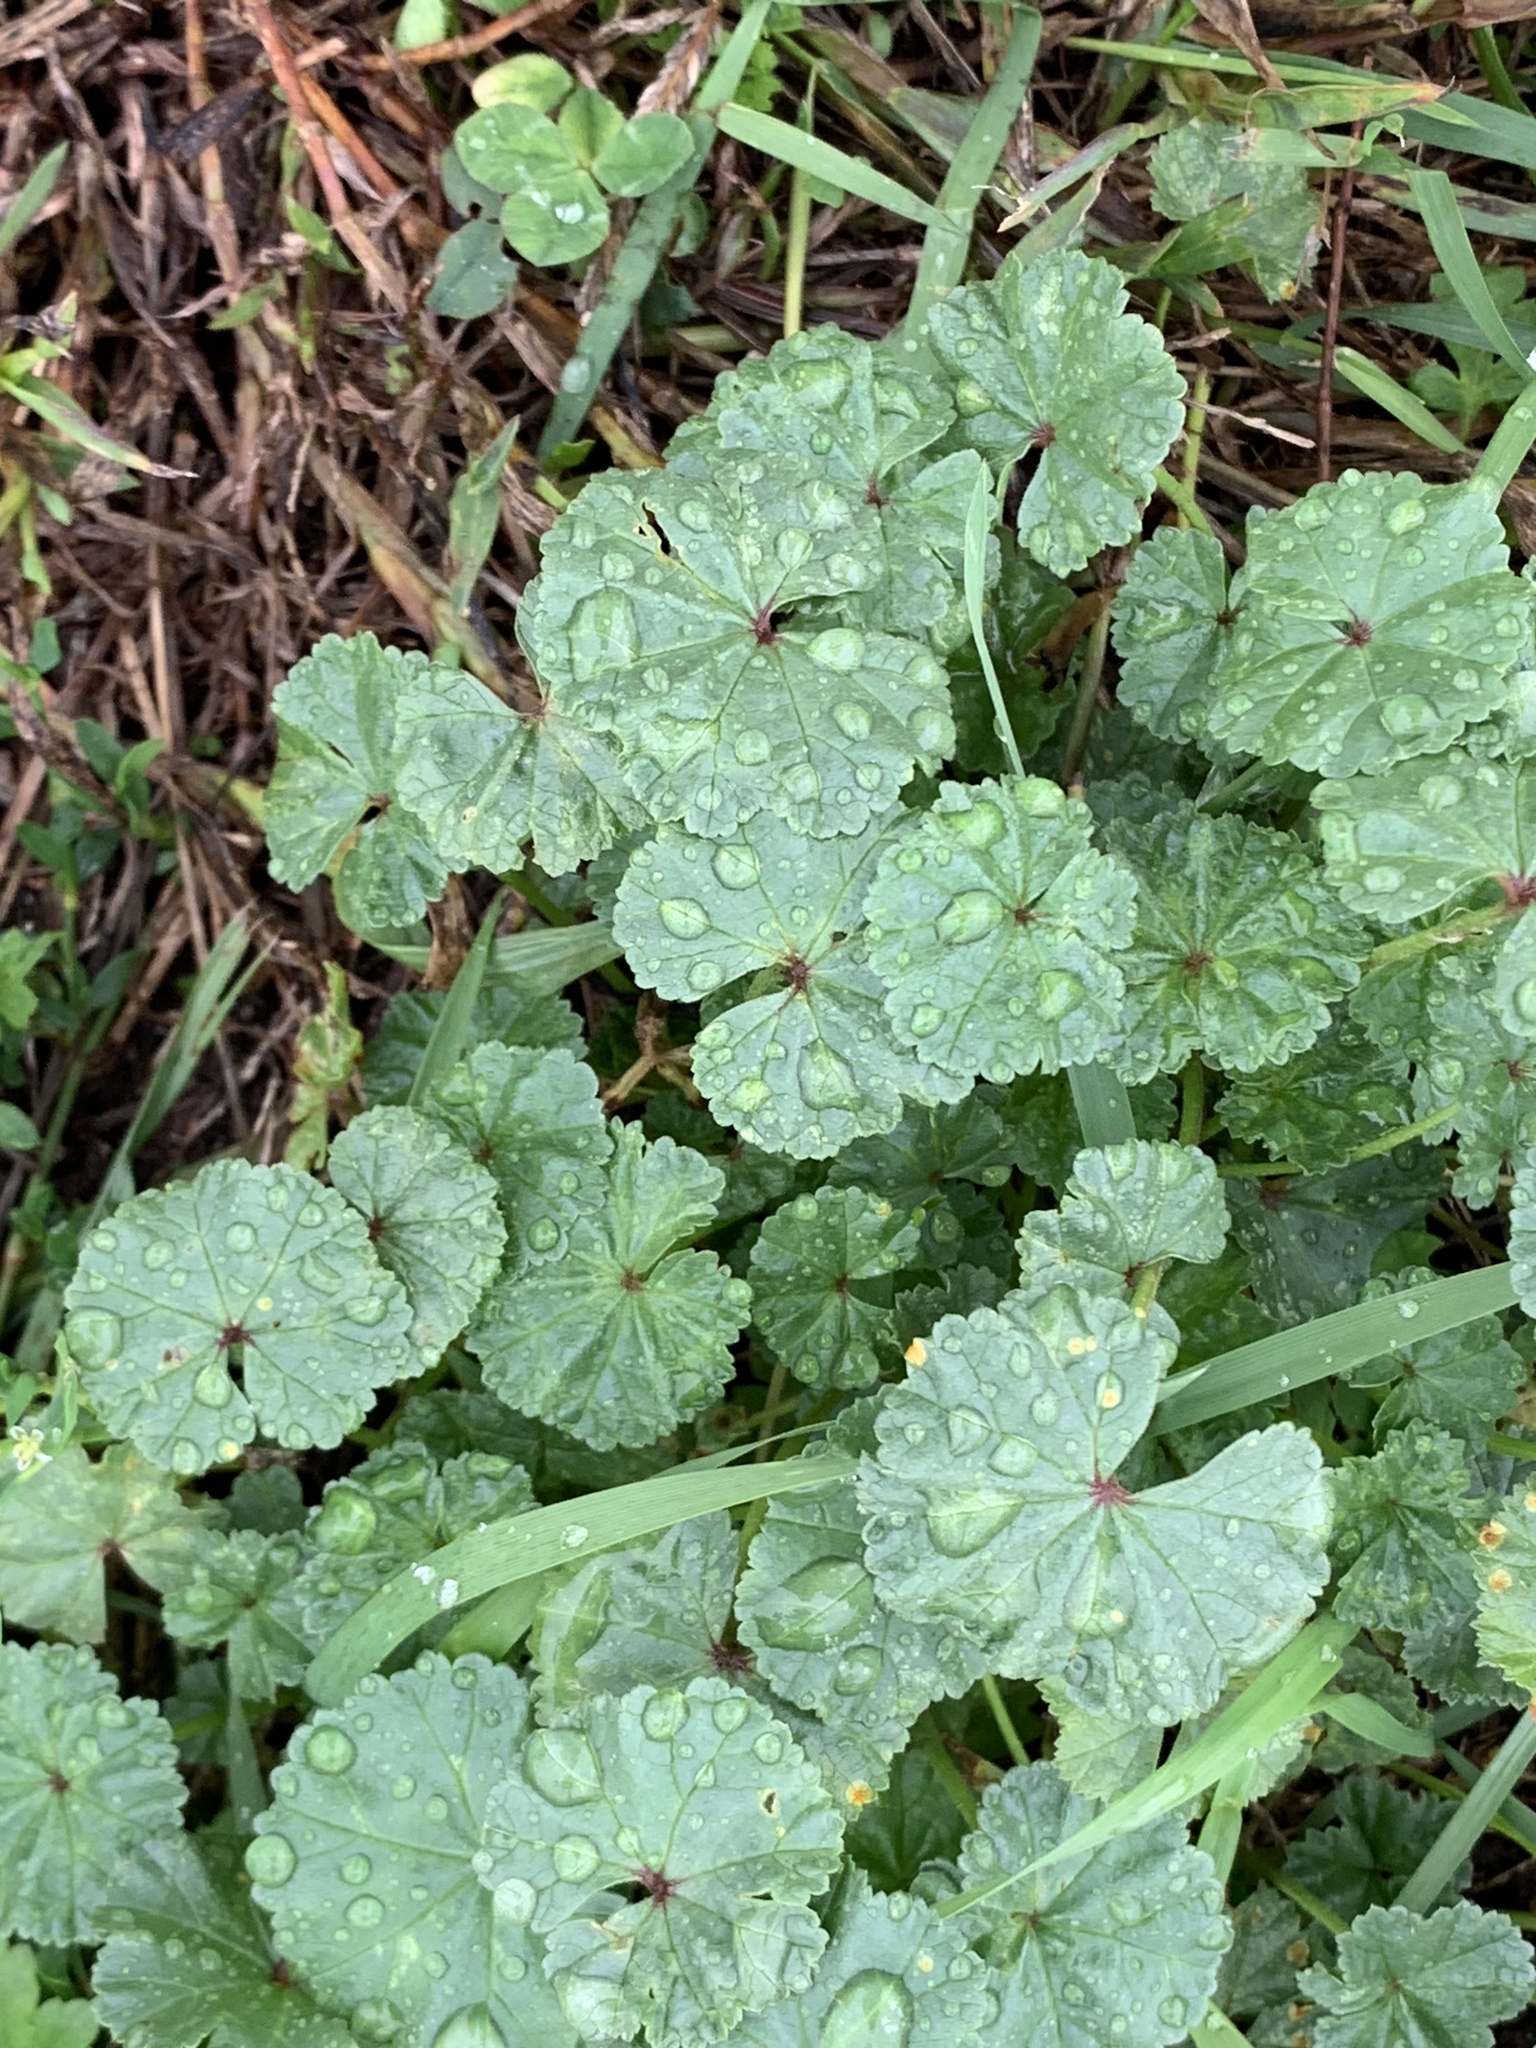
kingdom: Plantae
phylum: Tracheophyta
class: Magnoliopsida
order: Malvales
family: Malvaceae
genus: Malva
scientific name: Malva neglecta
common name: Common mallow
